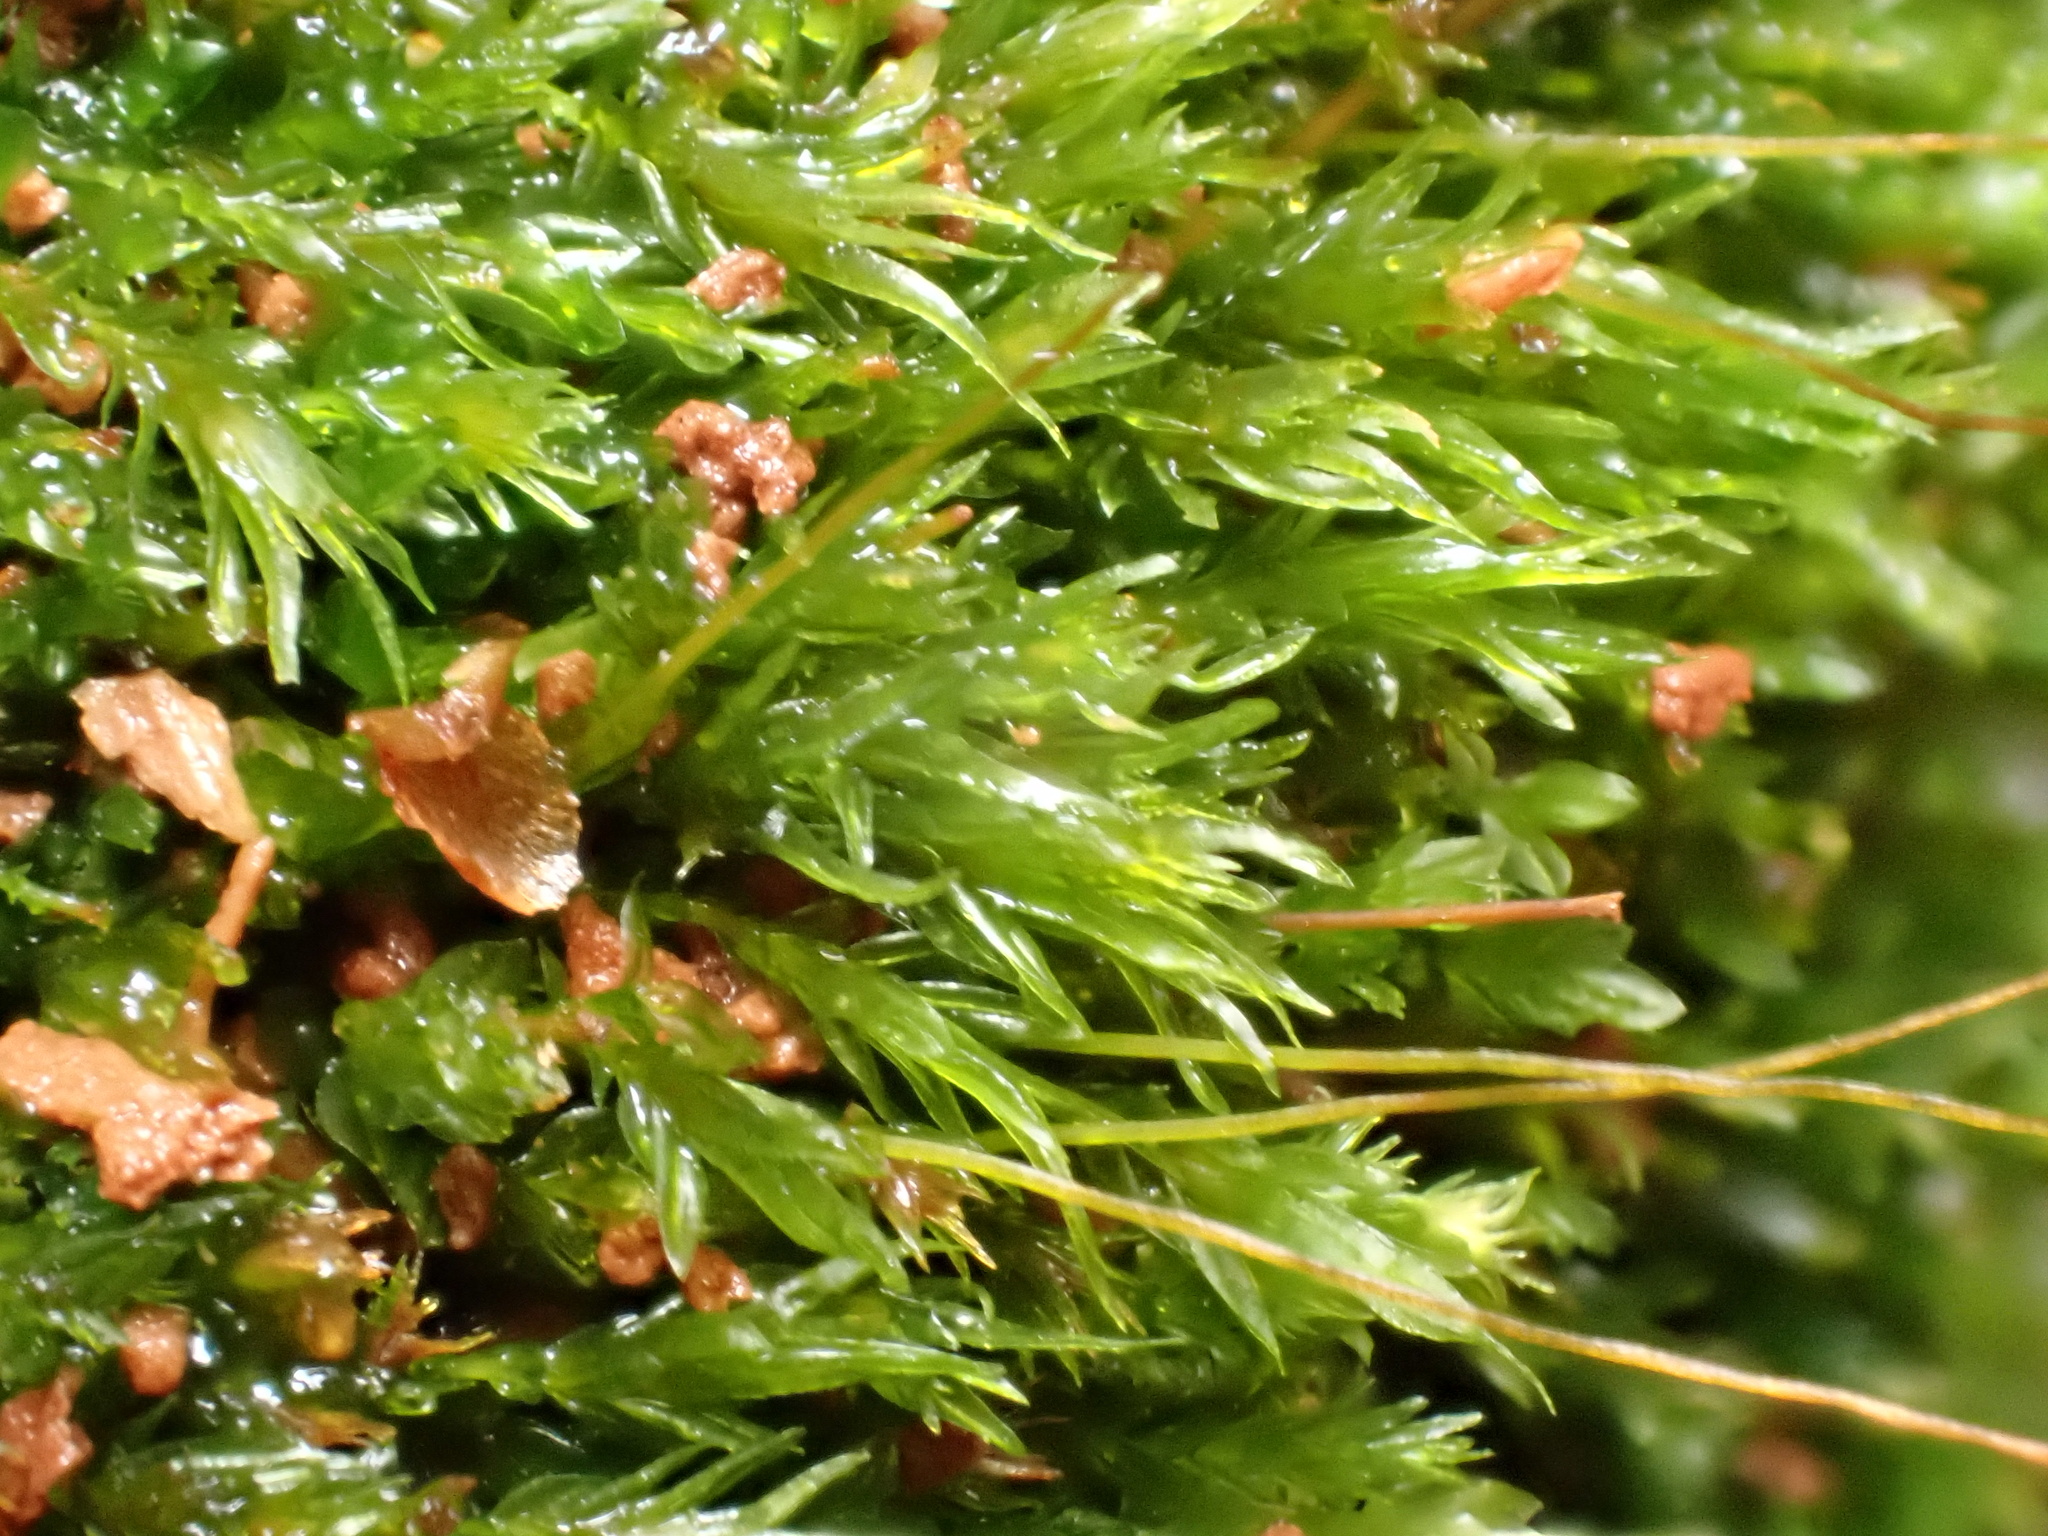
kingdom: Plantae
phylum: Bryophyta
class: Polytrichopsida
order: Tetraphidales
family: Tetraphidaceae
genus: Tetraphis
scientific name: Tetraphis pellucida
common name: Common four-toothed moss
